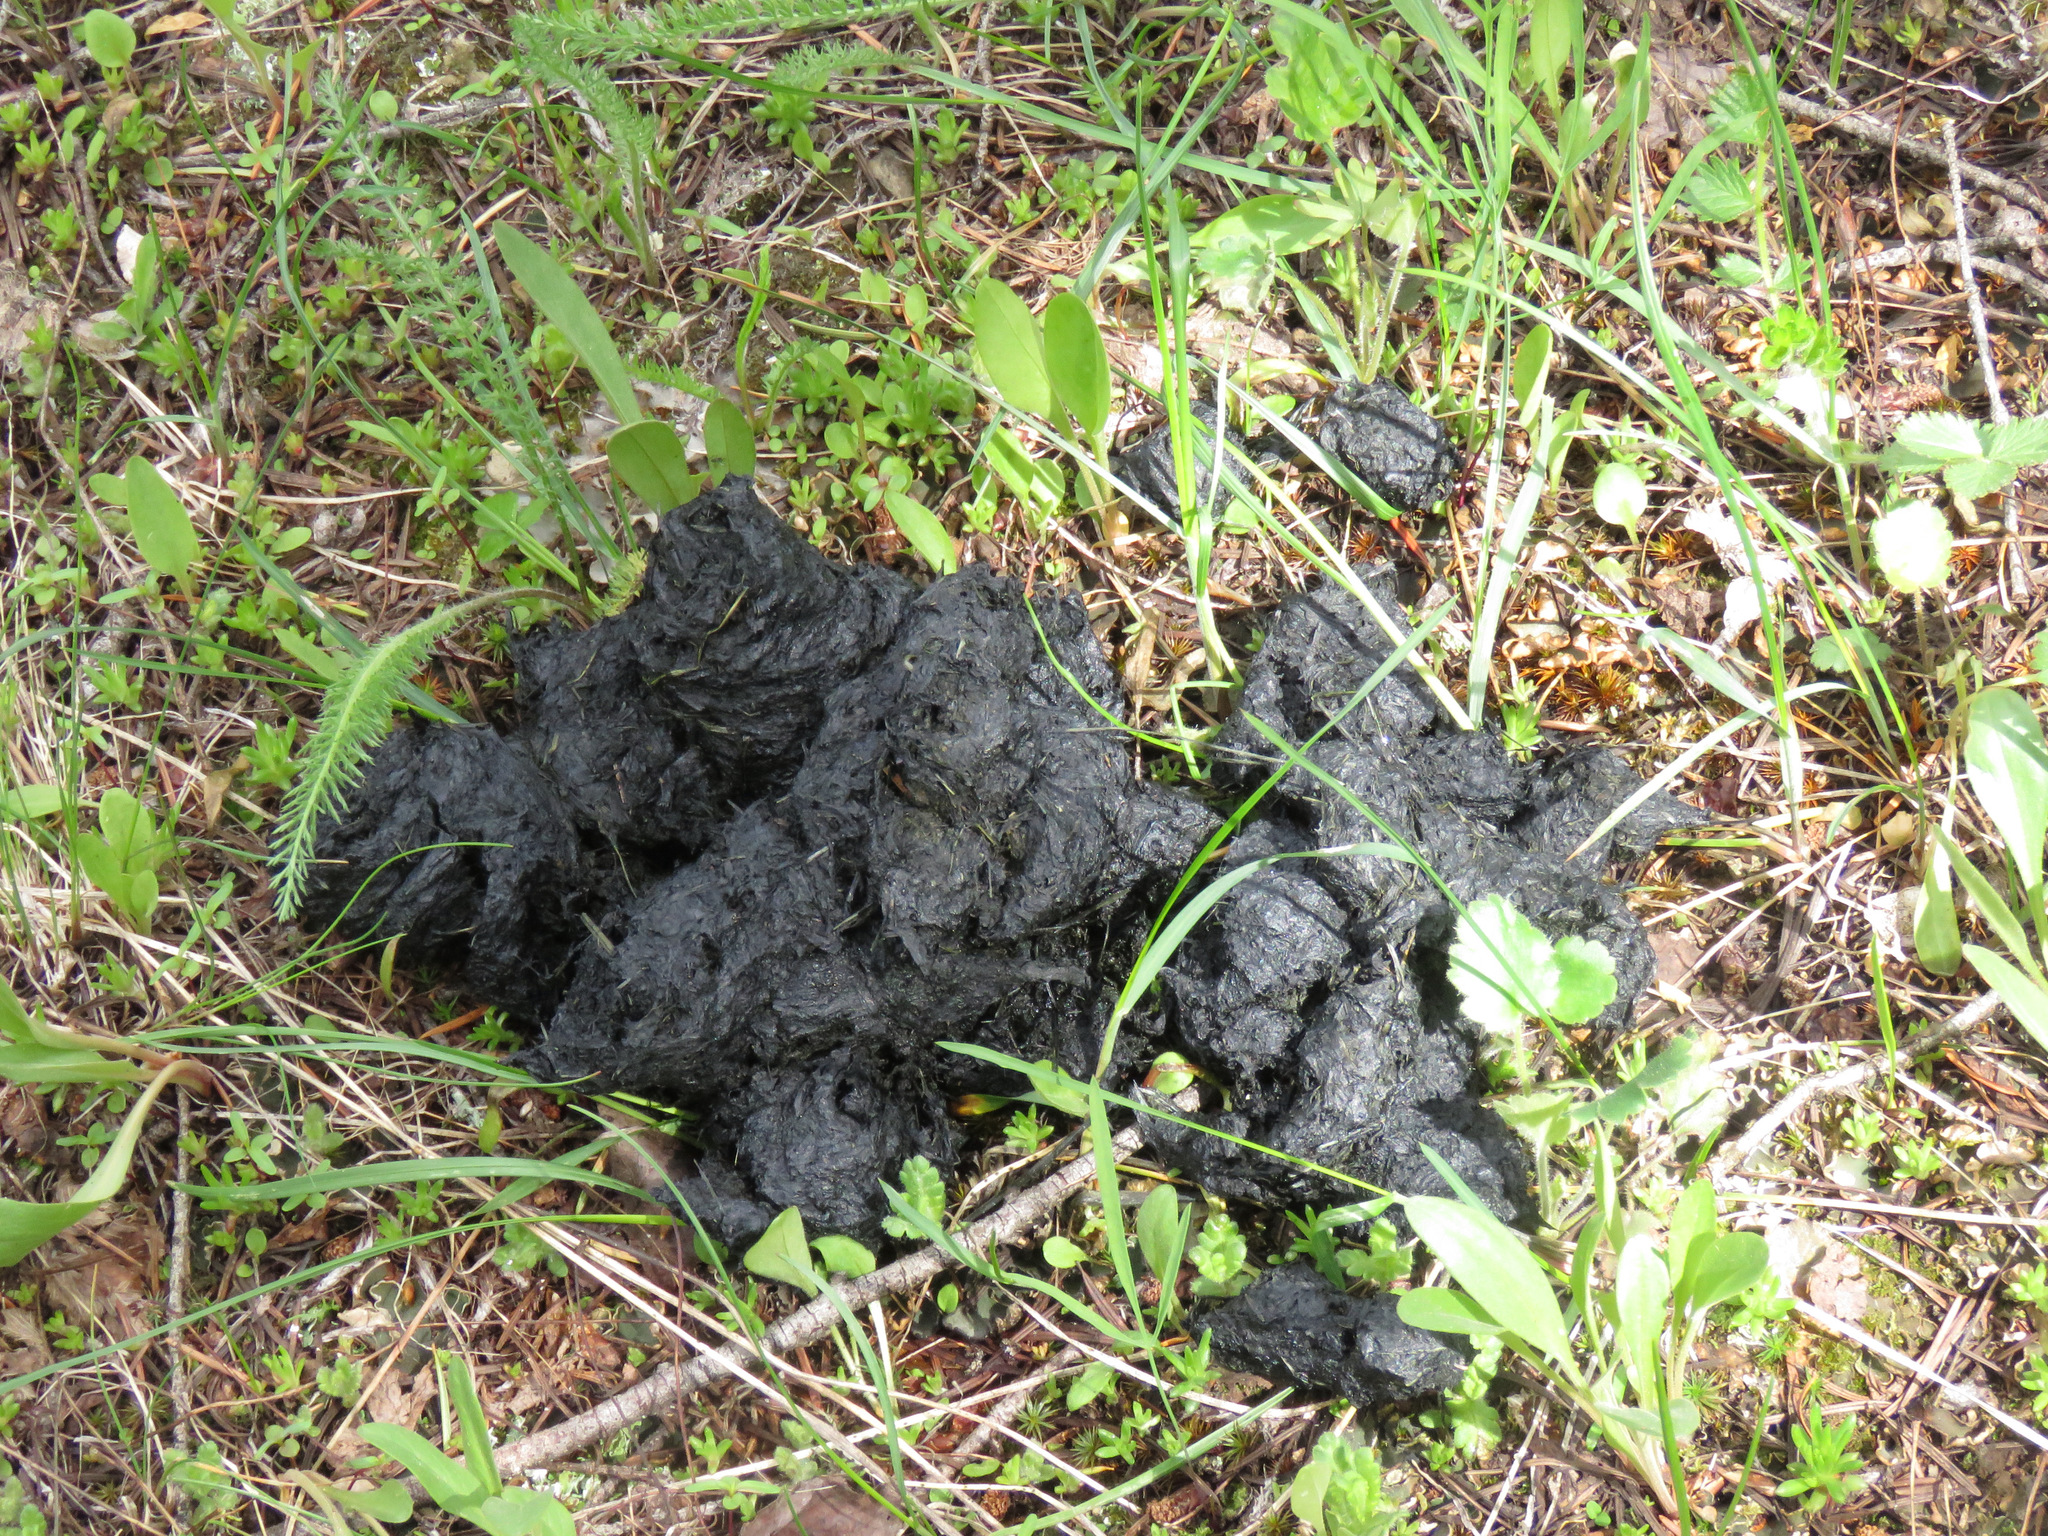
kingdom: Animalia
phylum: Chordata
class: Mammalia
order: Carnivora
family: Ursidae
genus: Ursus
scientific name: Ursus americanus
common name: American black bear
